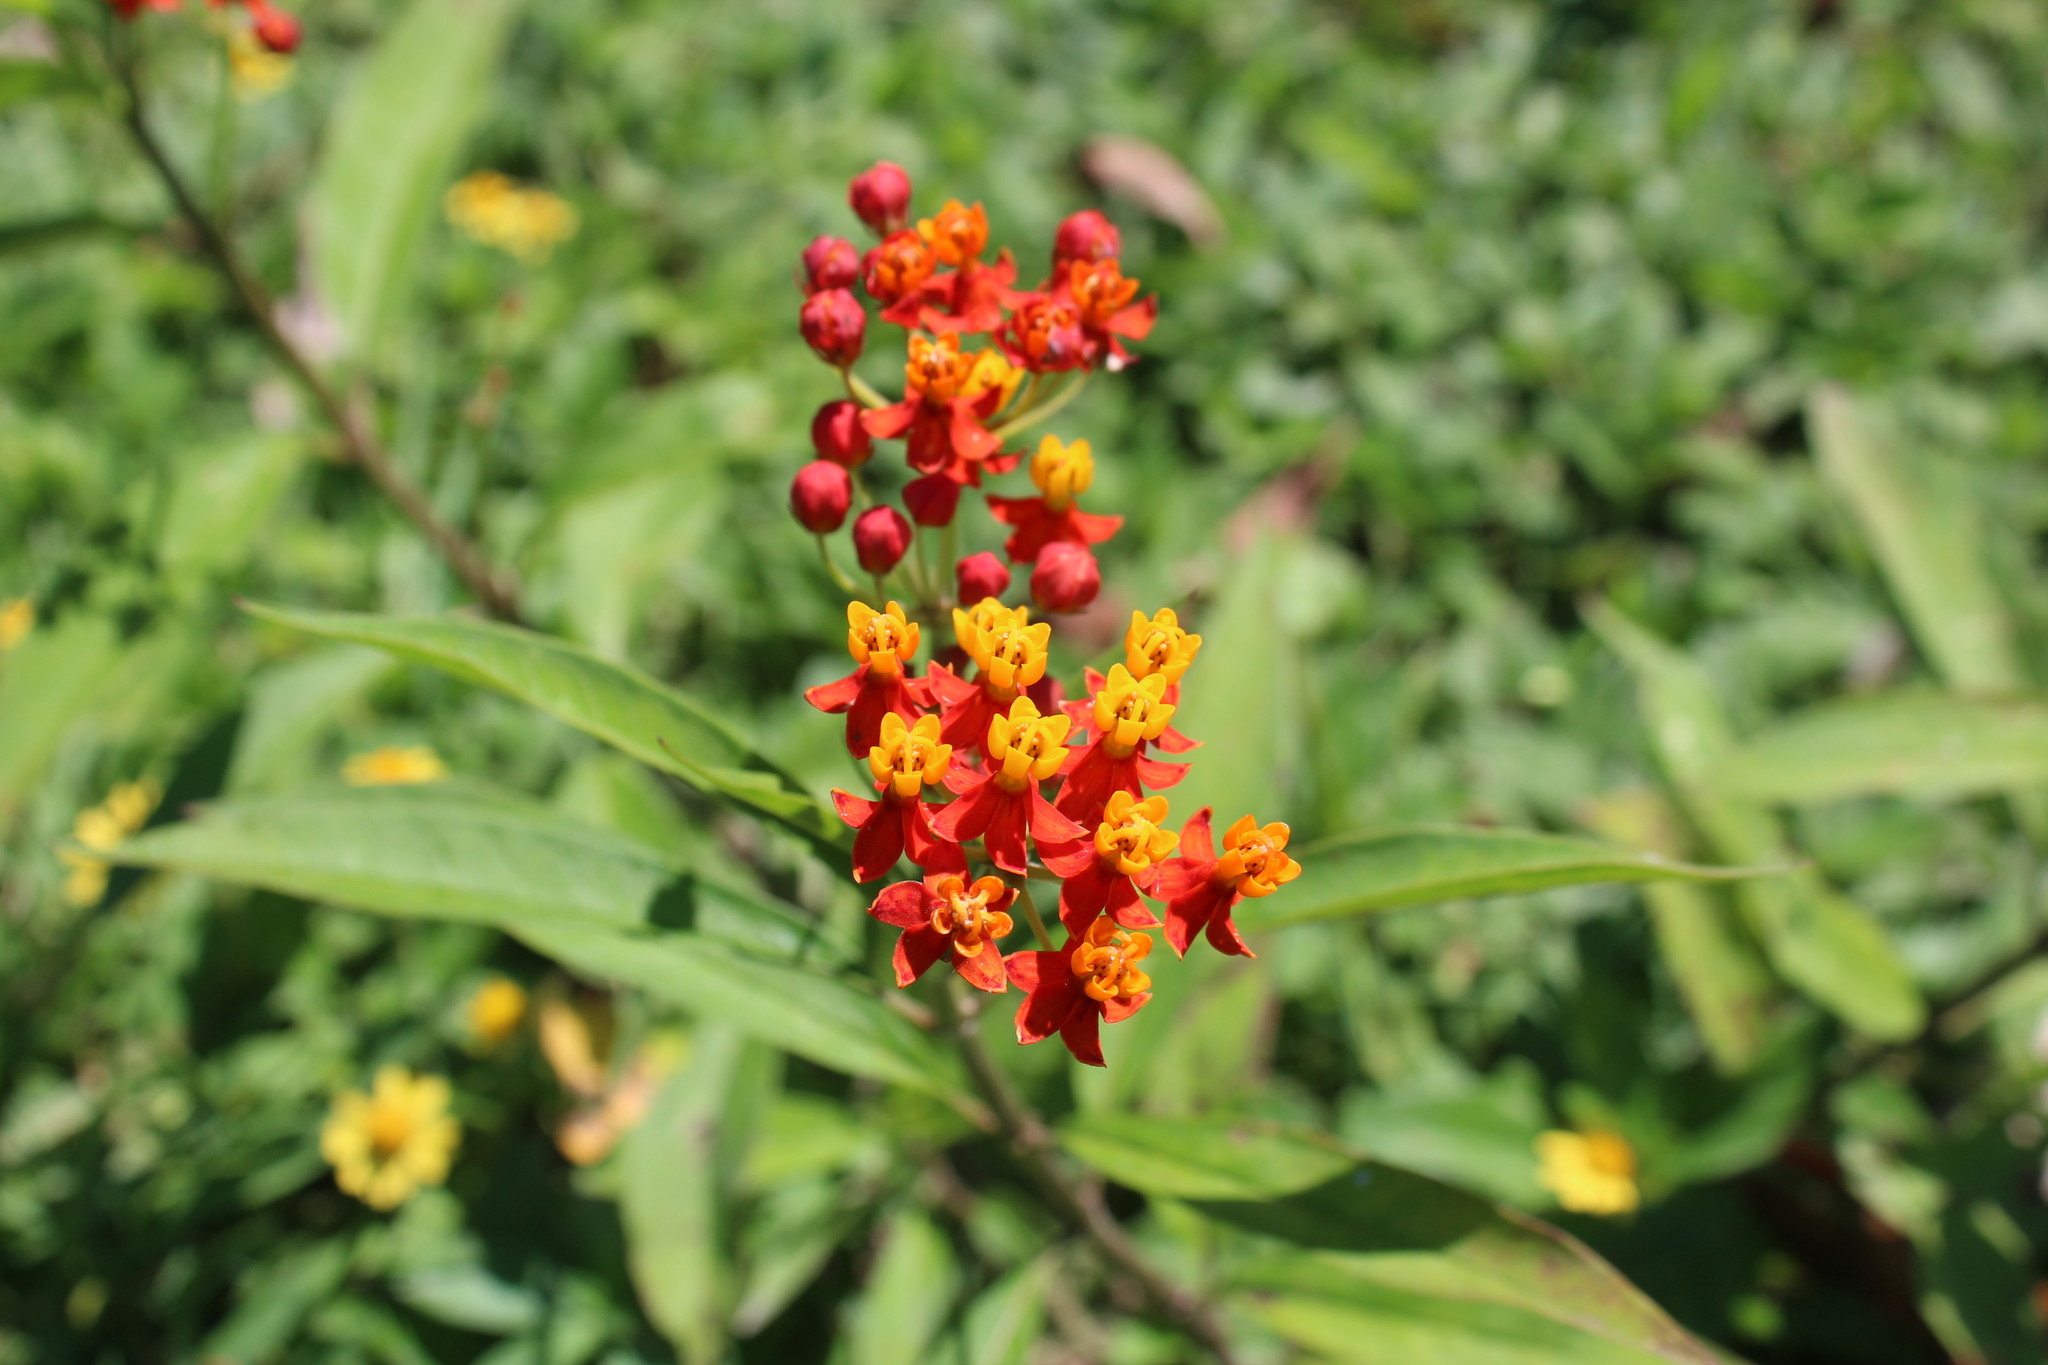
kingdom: Plantae
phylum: Tracheophyta
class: Magnoliopsida
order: Gentianales
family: Apocynaceae
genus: Asclepias
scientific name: Asclepias curassavica
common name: Bloodflower
